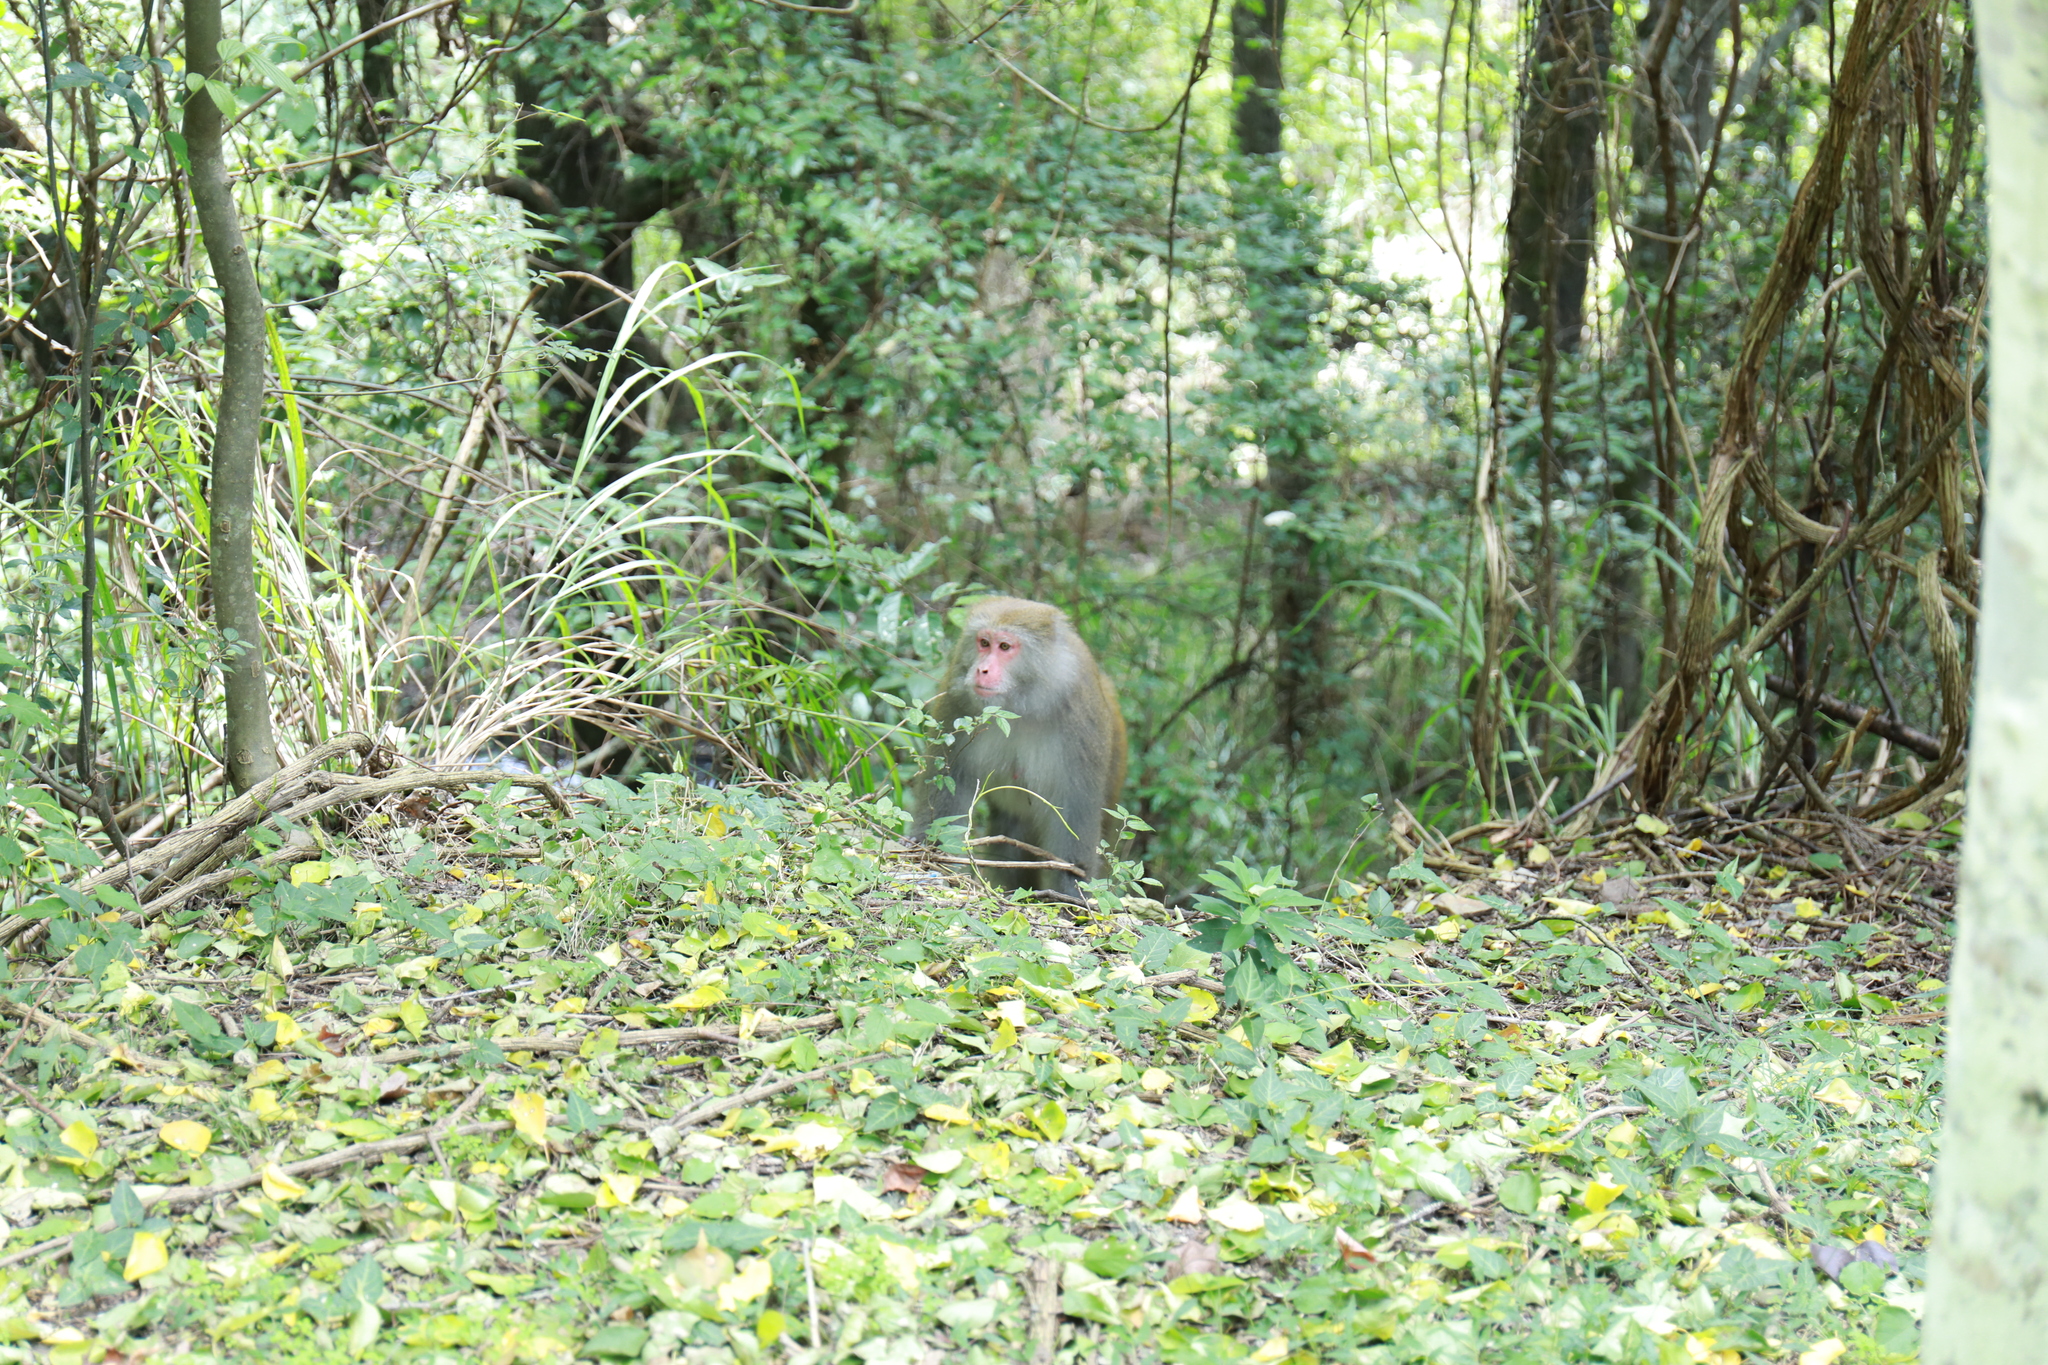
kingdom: Animalia
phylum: Chordata
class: Mammalia
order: Primates
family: Cercopithecidae
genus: Macaca
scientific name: Macaca cyclopis
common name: Formosan rock macaque
